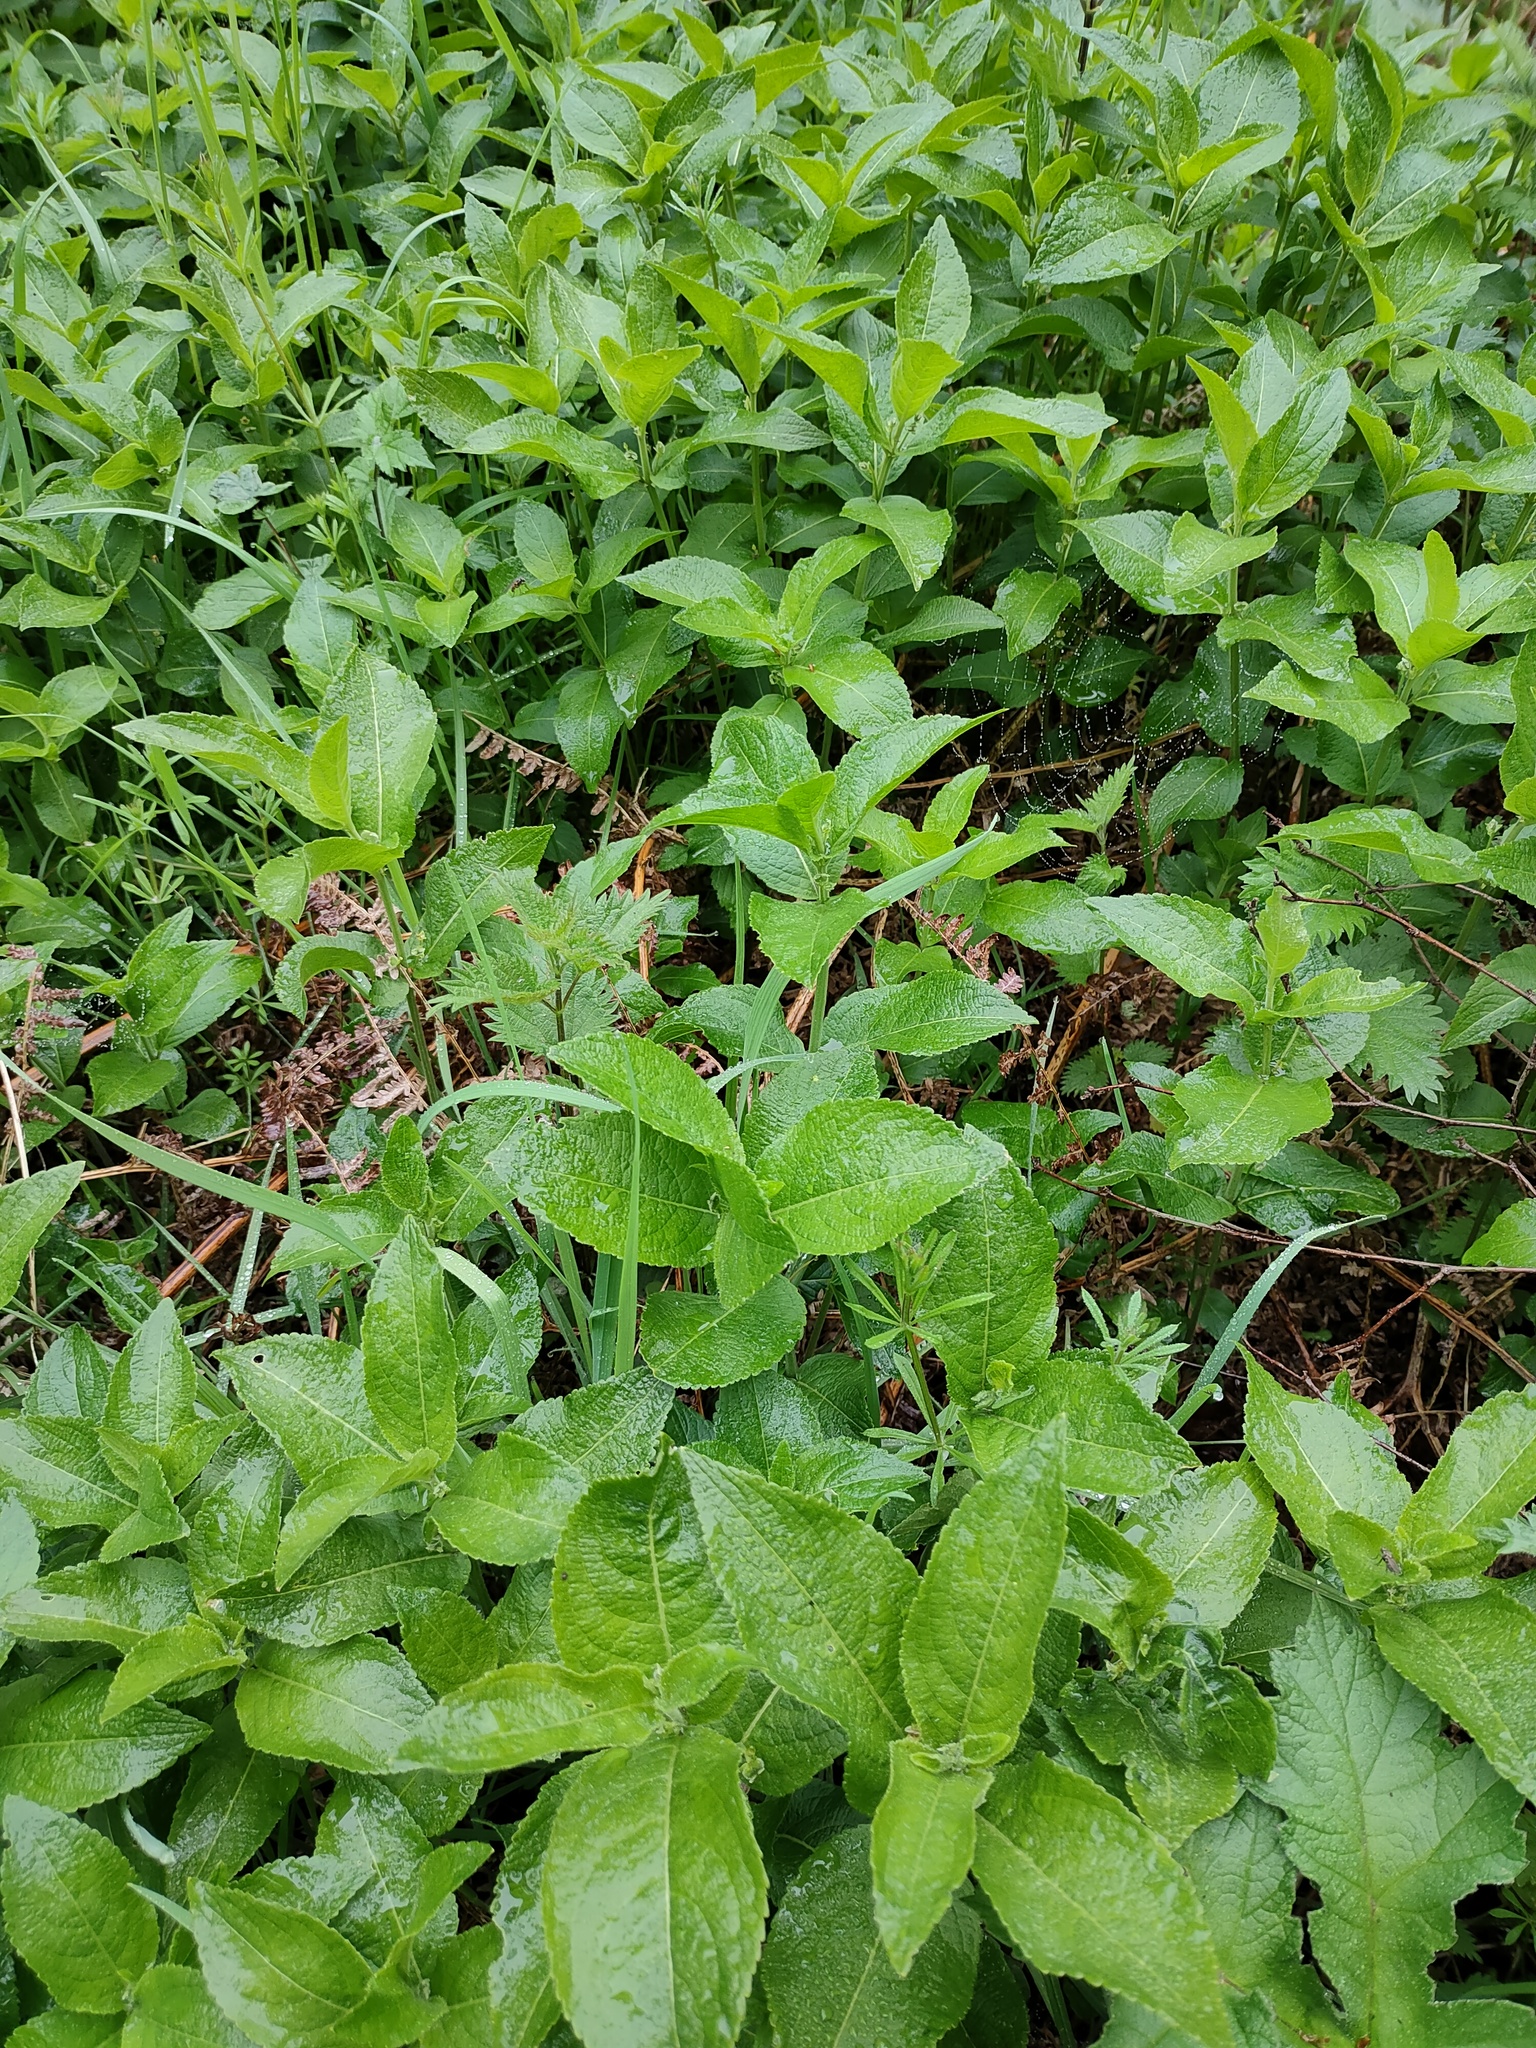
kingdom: Plantae
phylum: Tracheophyta
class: Magnoliopsida
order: Malpighiales
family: Euphorbiaceae
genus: Mercurialis
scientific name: Mercurialis perennis
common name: Dog mercury
